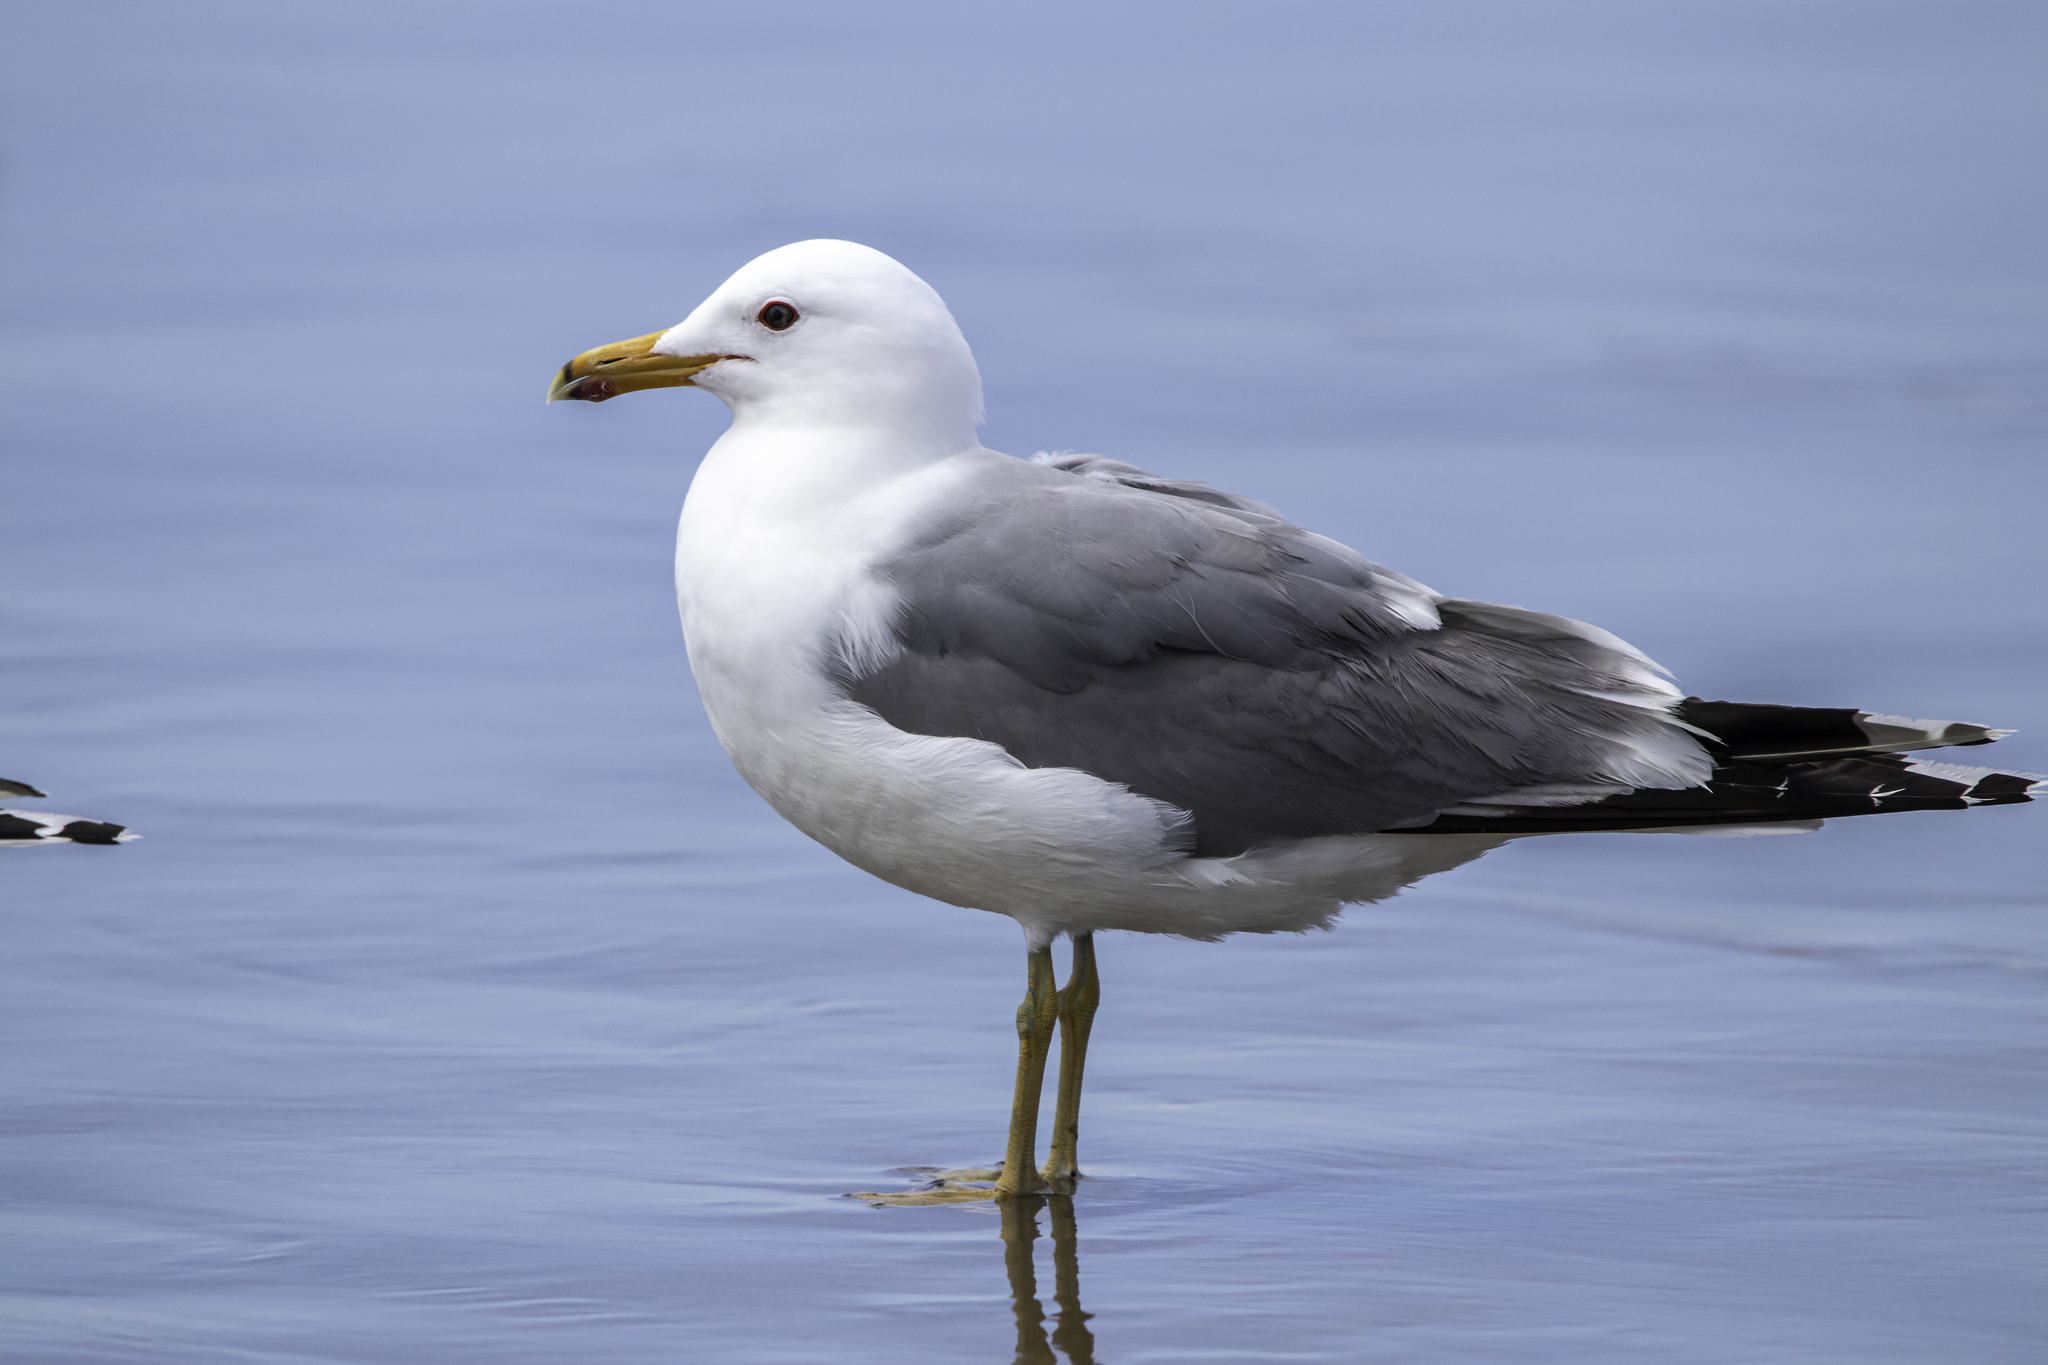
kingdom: Animalia
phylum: Chordata
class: Aves
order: Charadriiformes
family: Laridae
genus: Larus
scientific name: Larus californicus
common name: California gull
